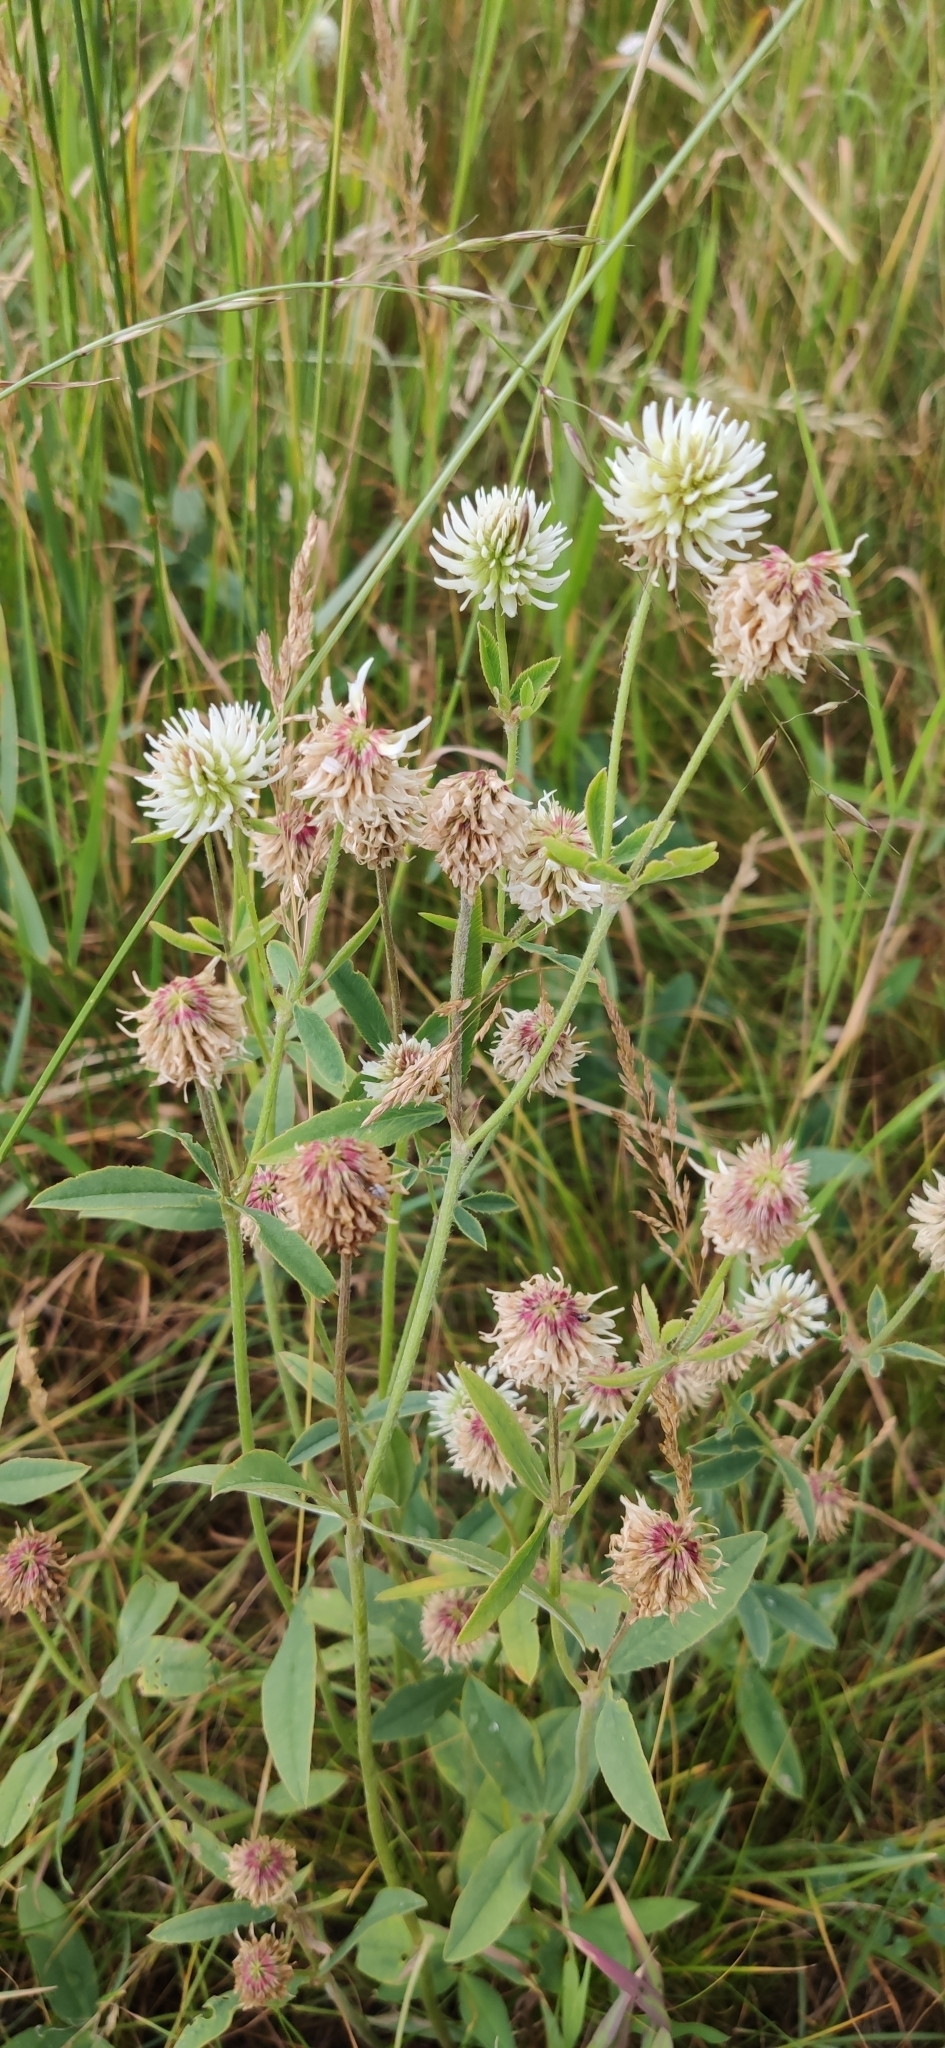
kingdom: Plantae
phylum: Tracheophyta
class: Magnoliopsida
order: Fabales
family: Fabaceae
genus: Trifolium
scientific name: Trifolium montanum
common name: Mountain clover
